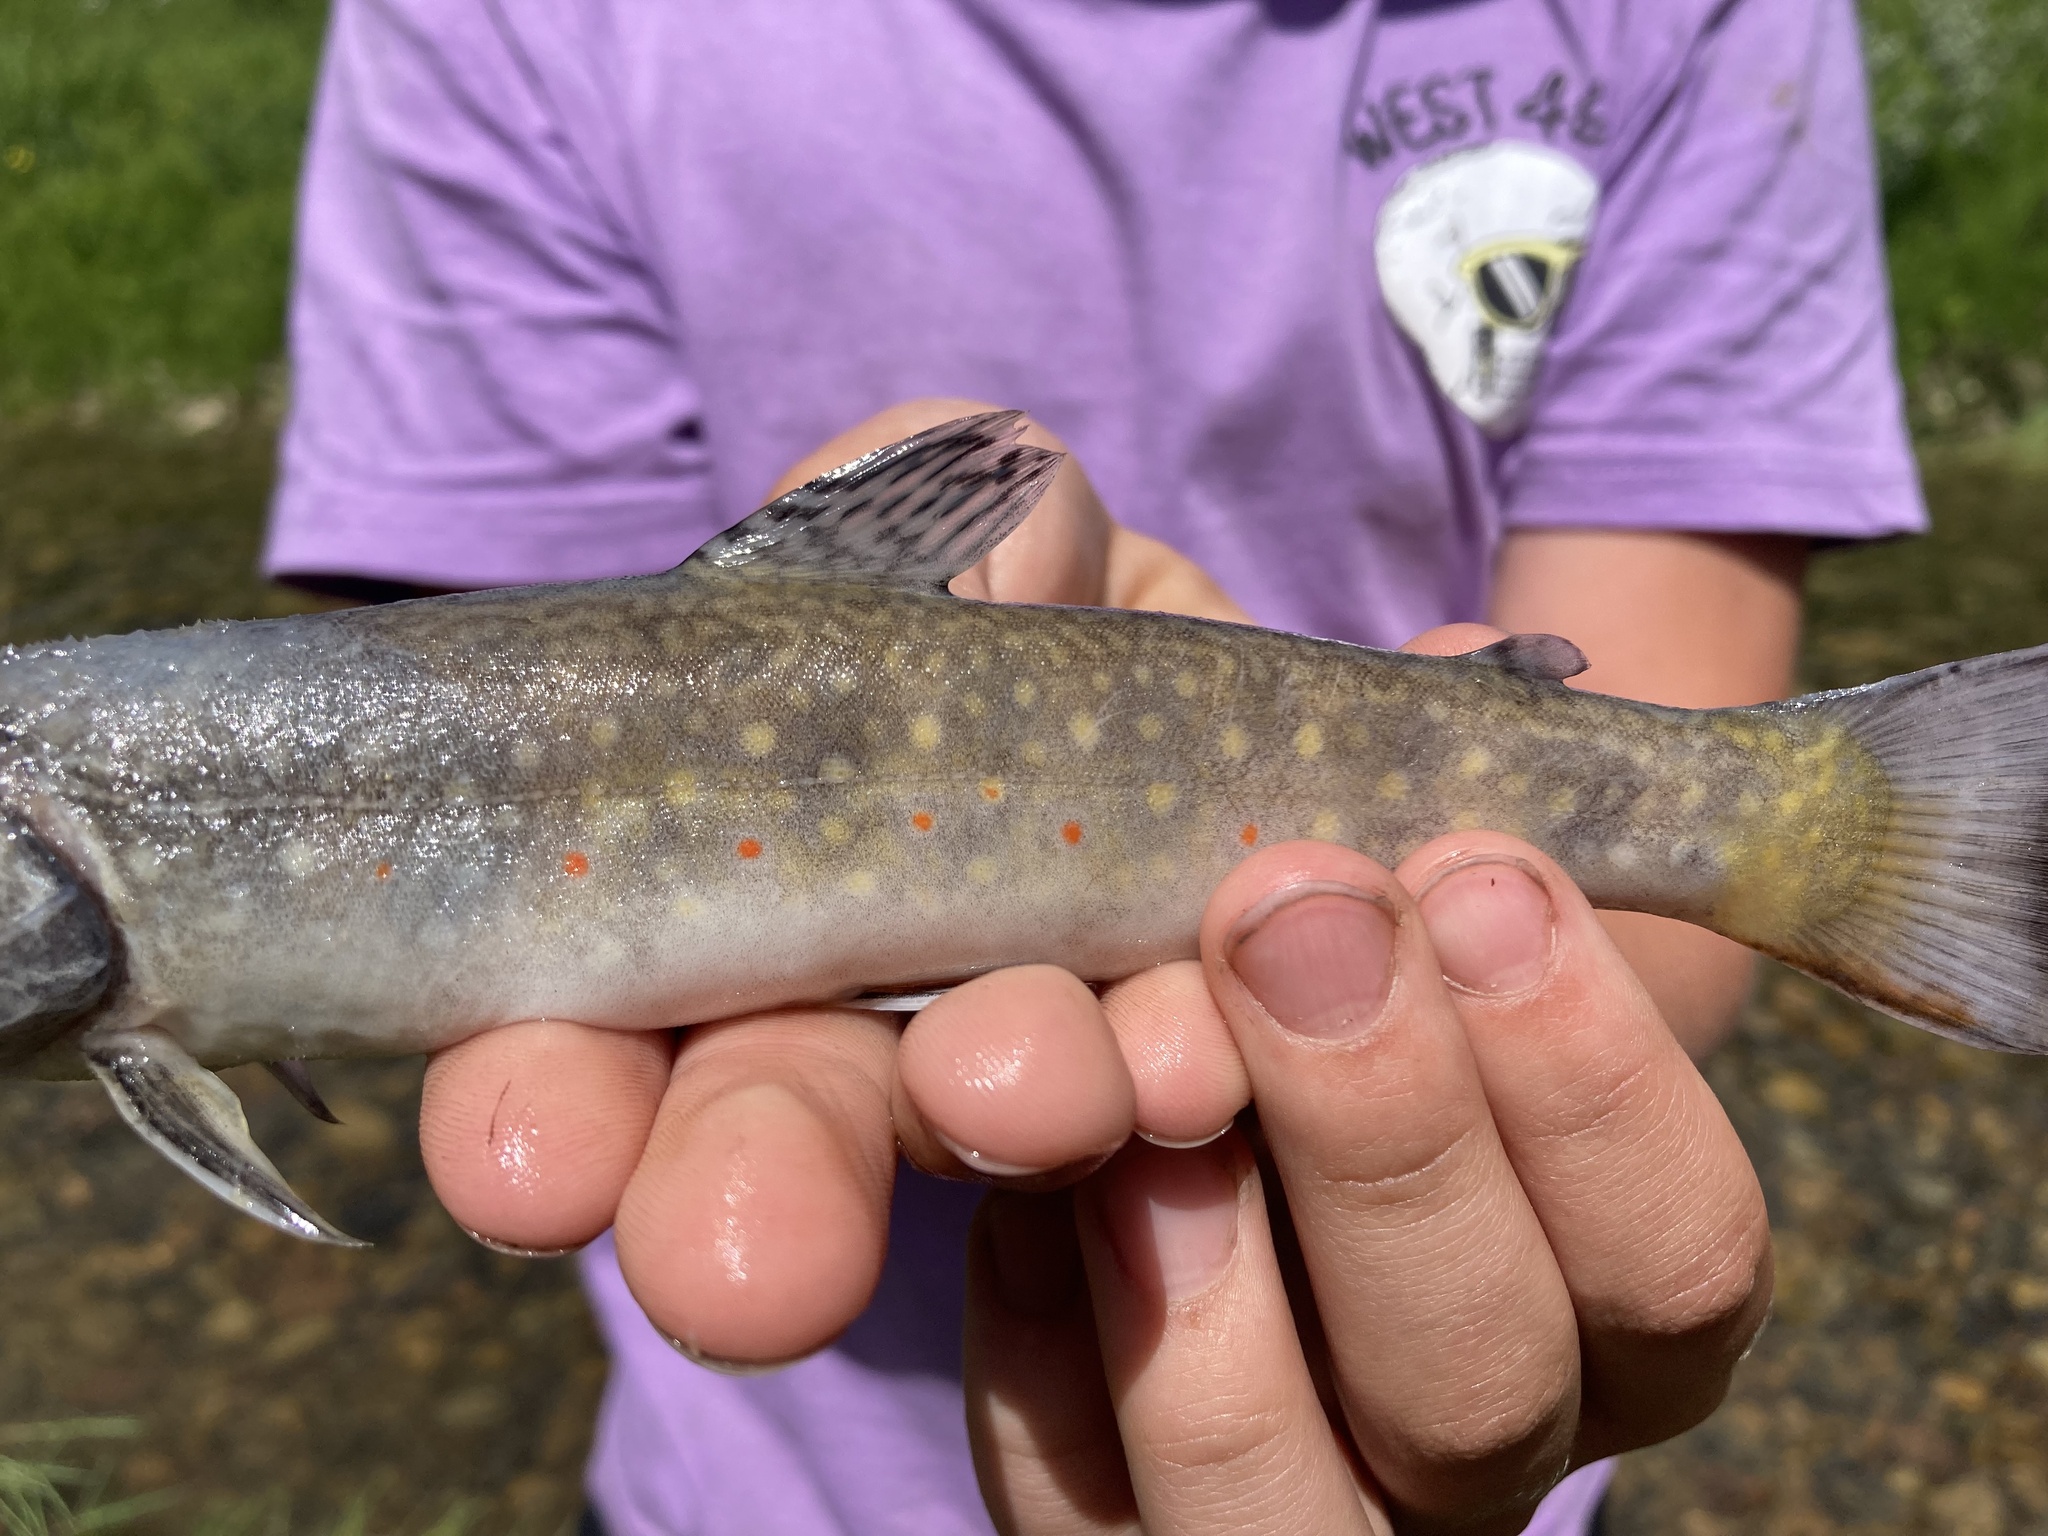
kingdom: Animalia
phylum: Chordata
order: Salmoniformes
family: Salmonidae
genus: Salvelinus
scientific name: Salvelinus fontinalis
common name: Brook trout
